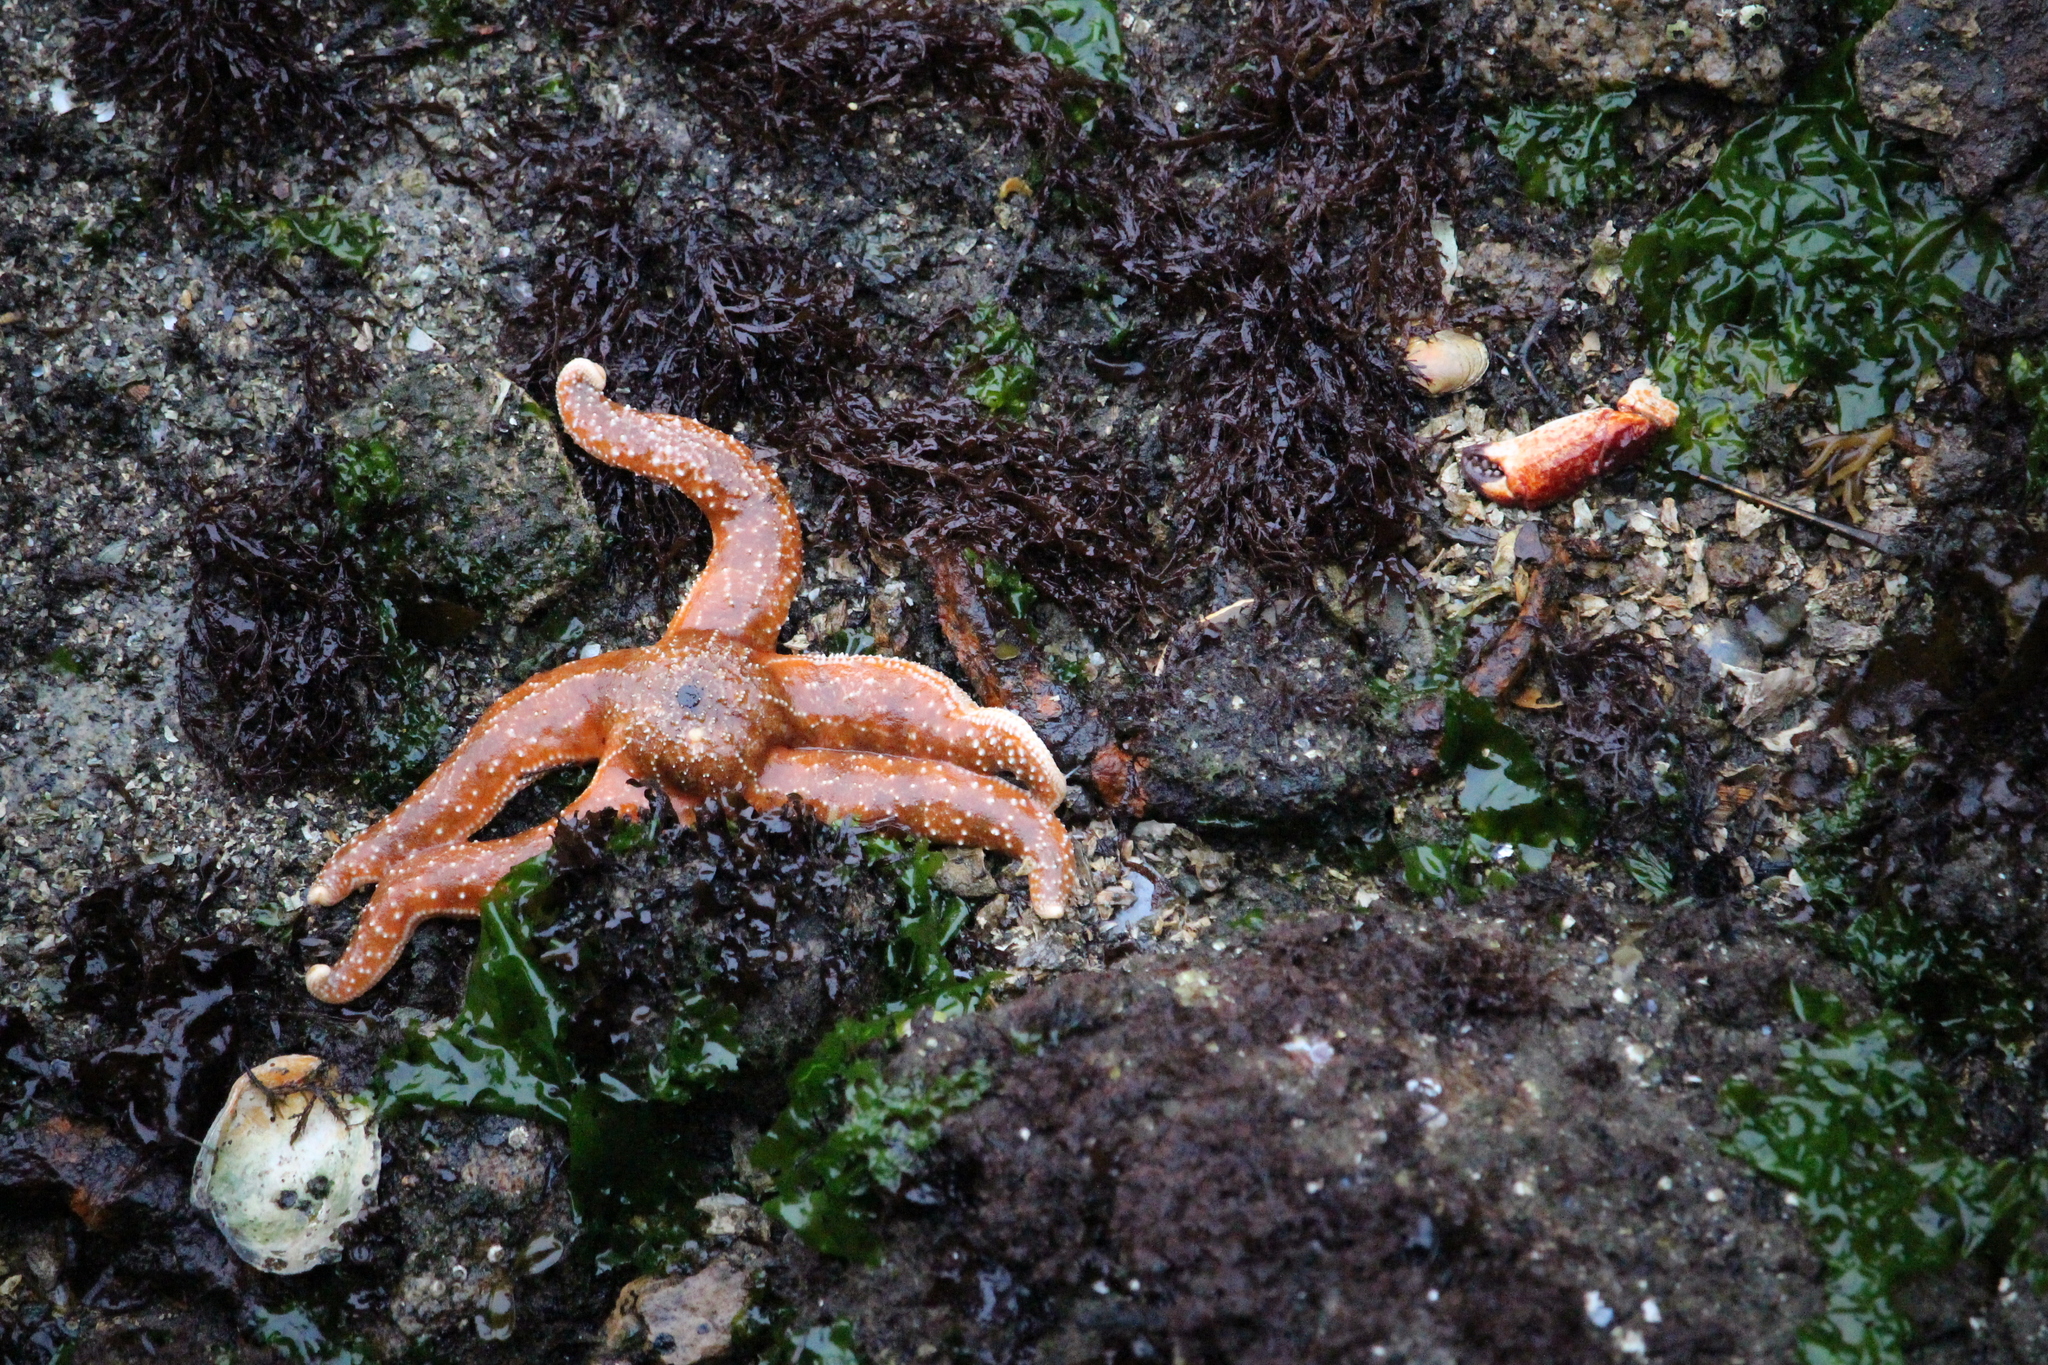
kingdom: Animalia
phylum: Echinodermata
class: Asteroidea
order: Forcipulatida
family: Asteriidae
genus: Evasterias
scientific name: Evasterias troschelii
